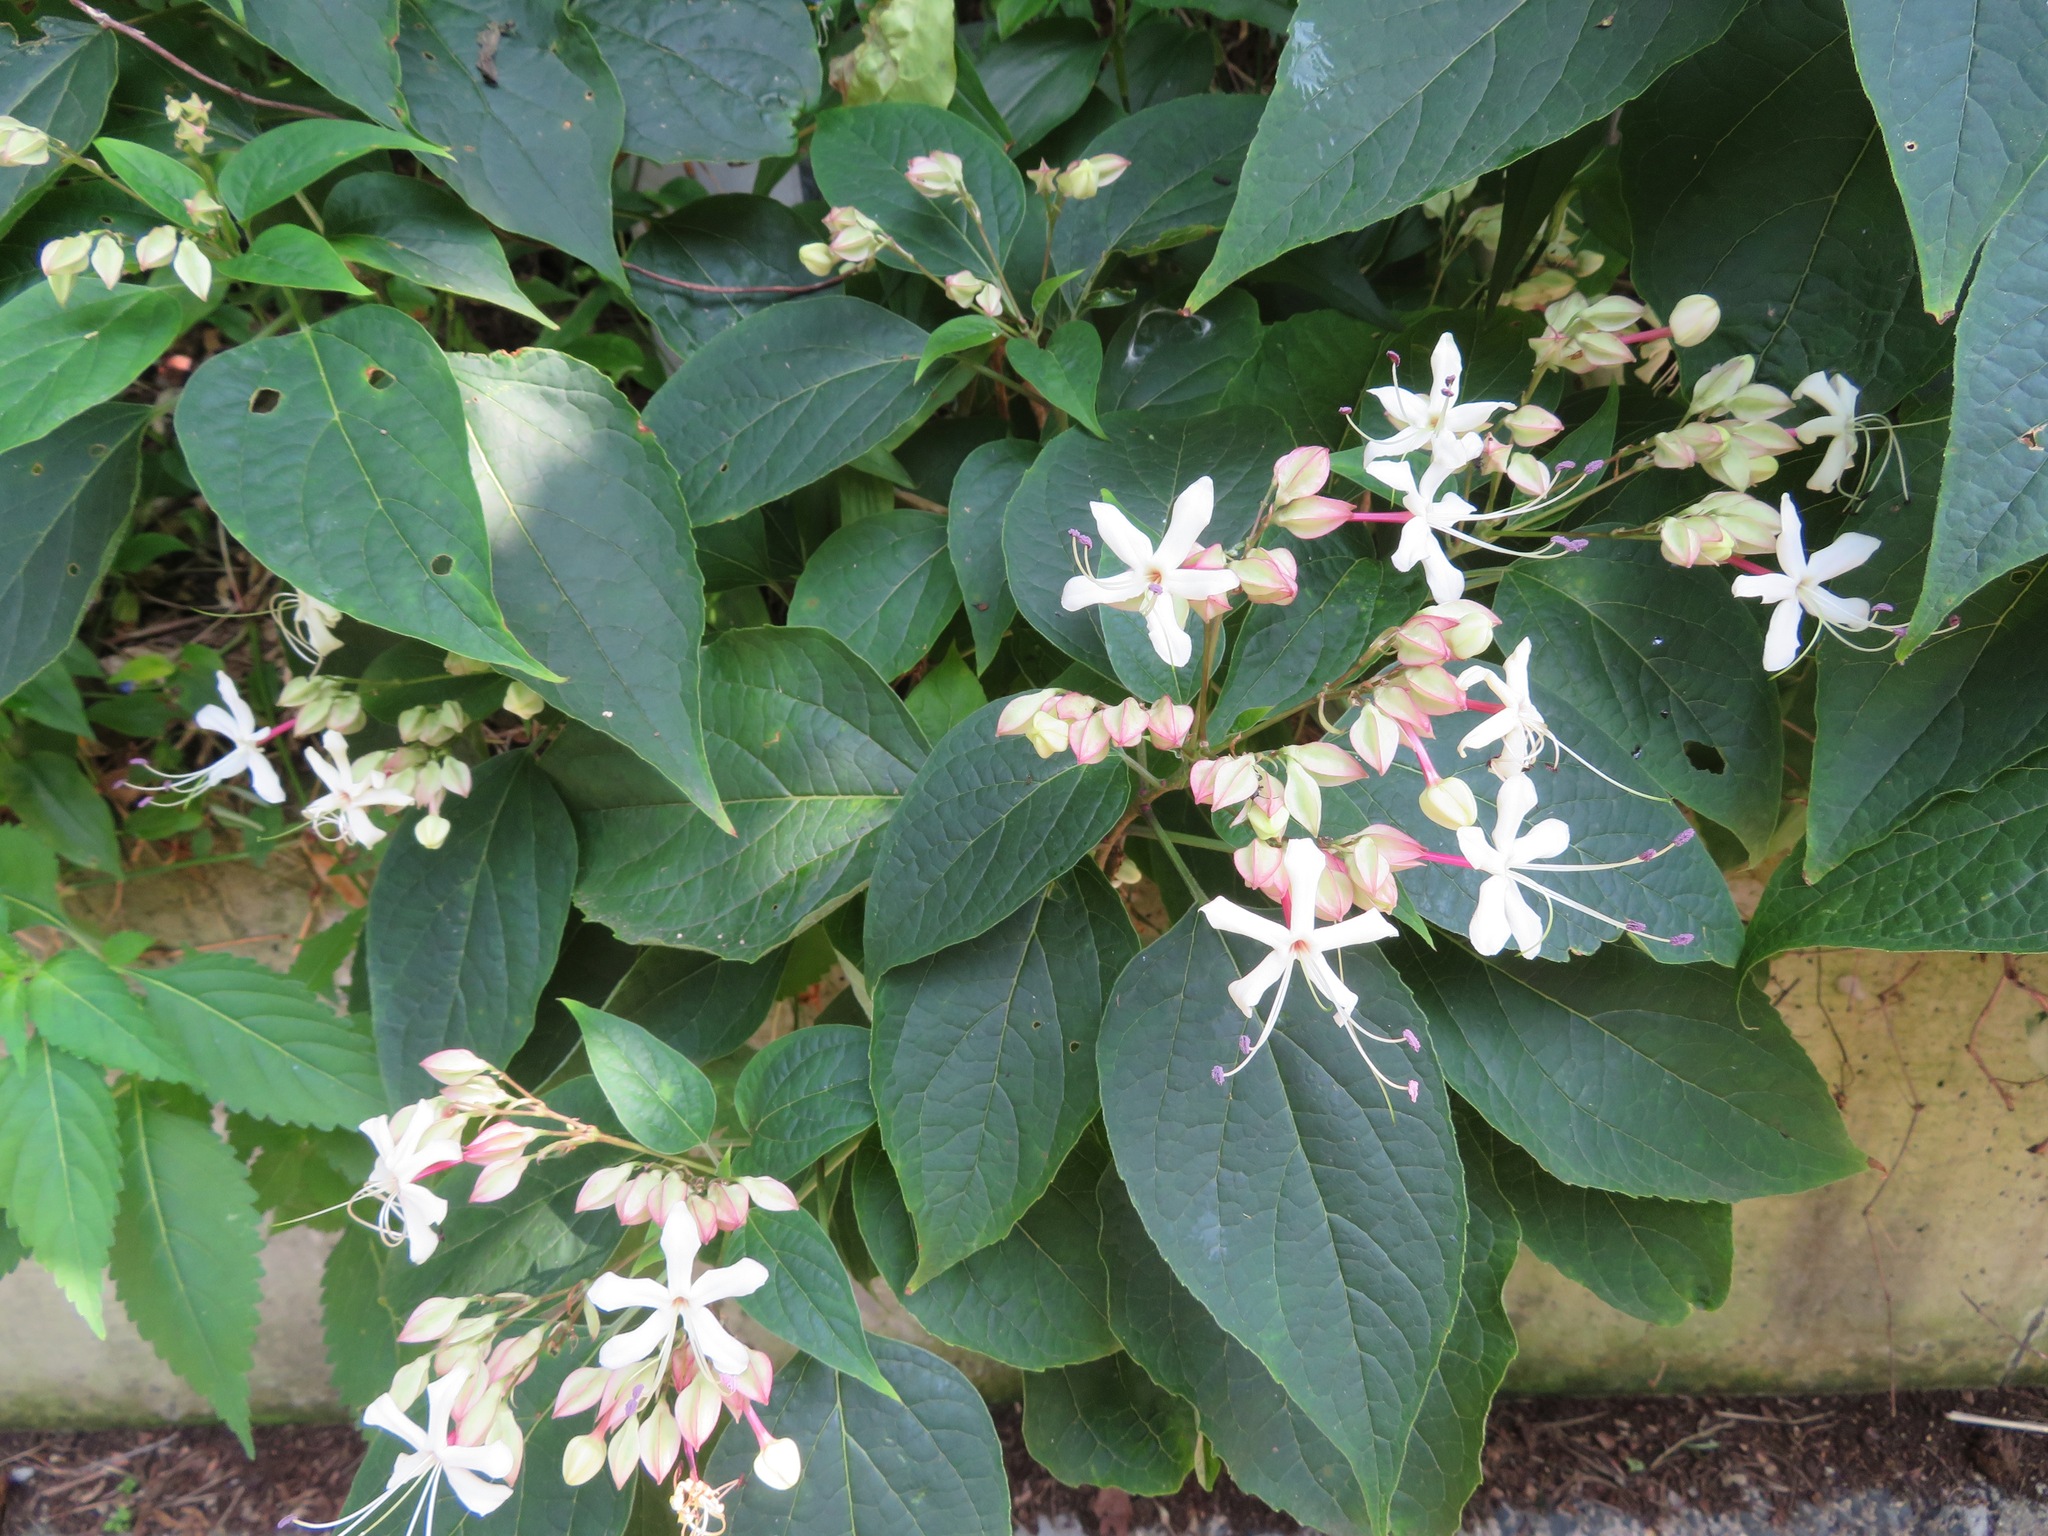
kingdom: Plantae
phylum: Tracheophyta
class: Magnoliopsida
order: Lamiales
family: Lamiaceae
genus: Clerodendrum
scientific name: Clerodendrum trichotomum
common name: Harlequin glorybower
